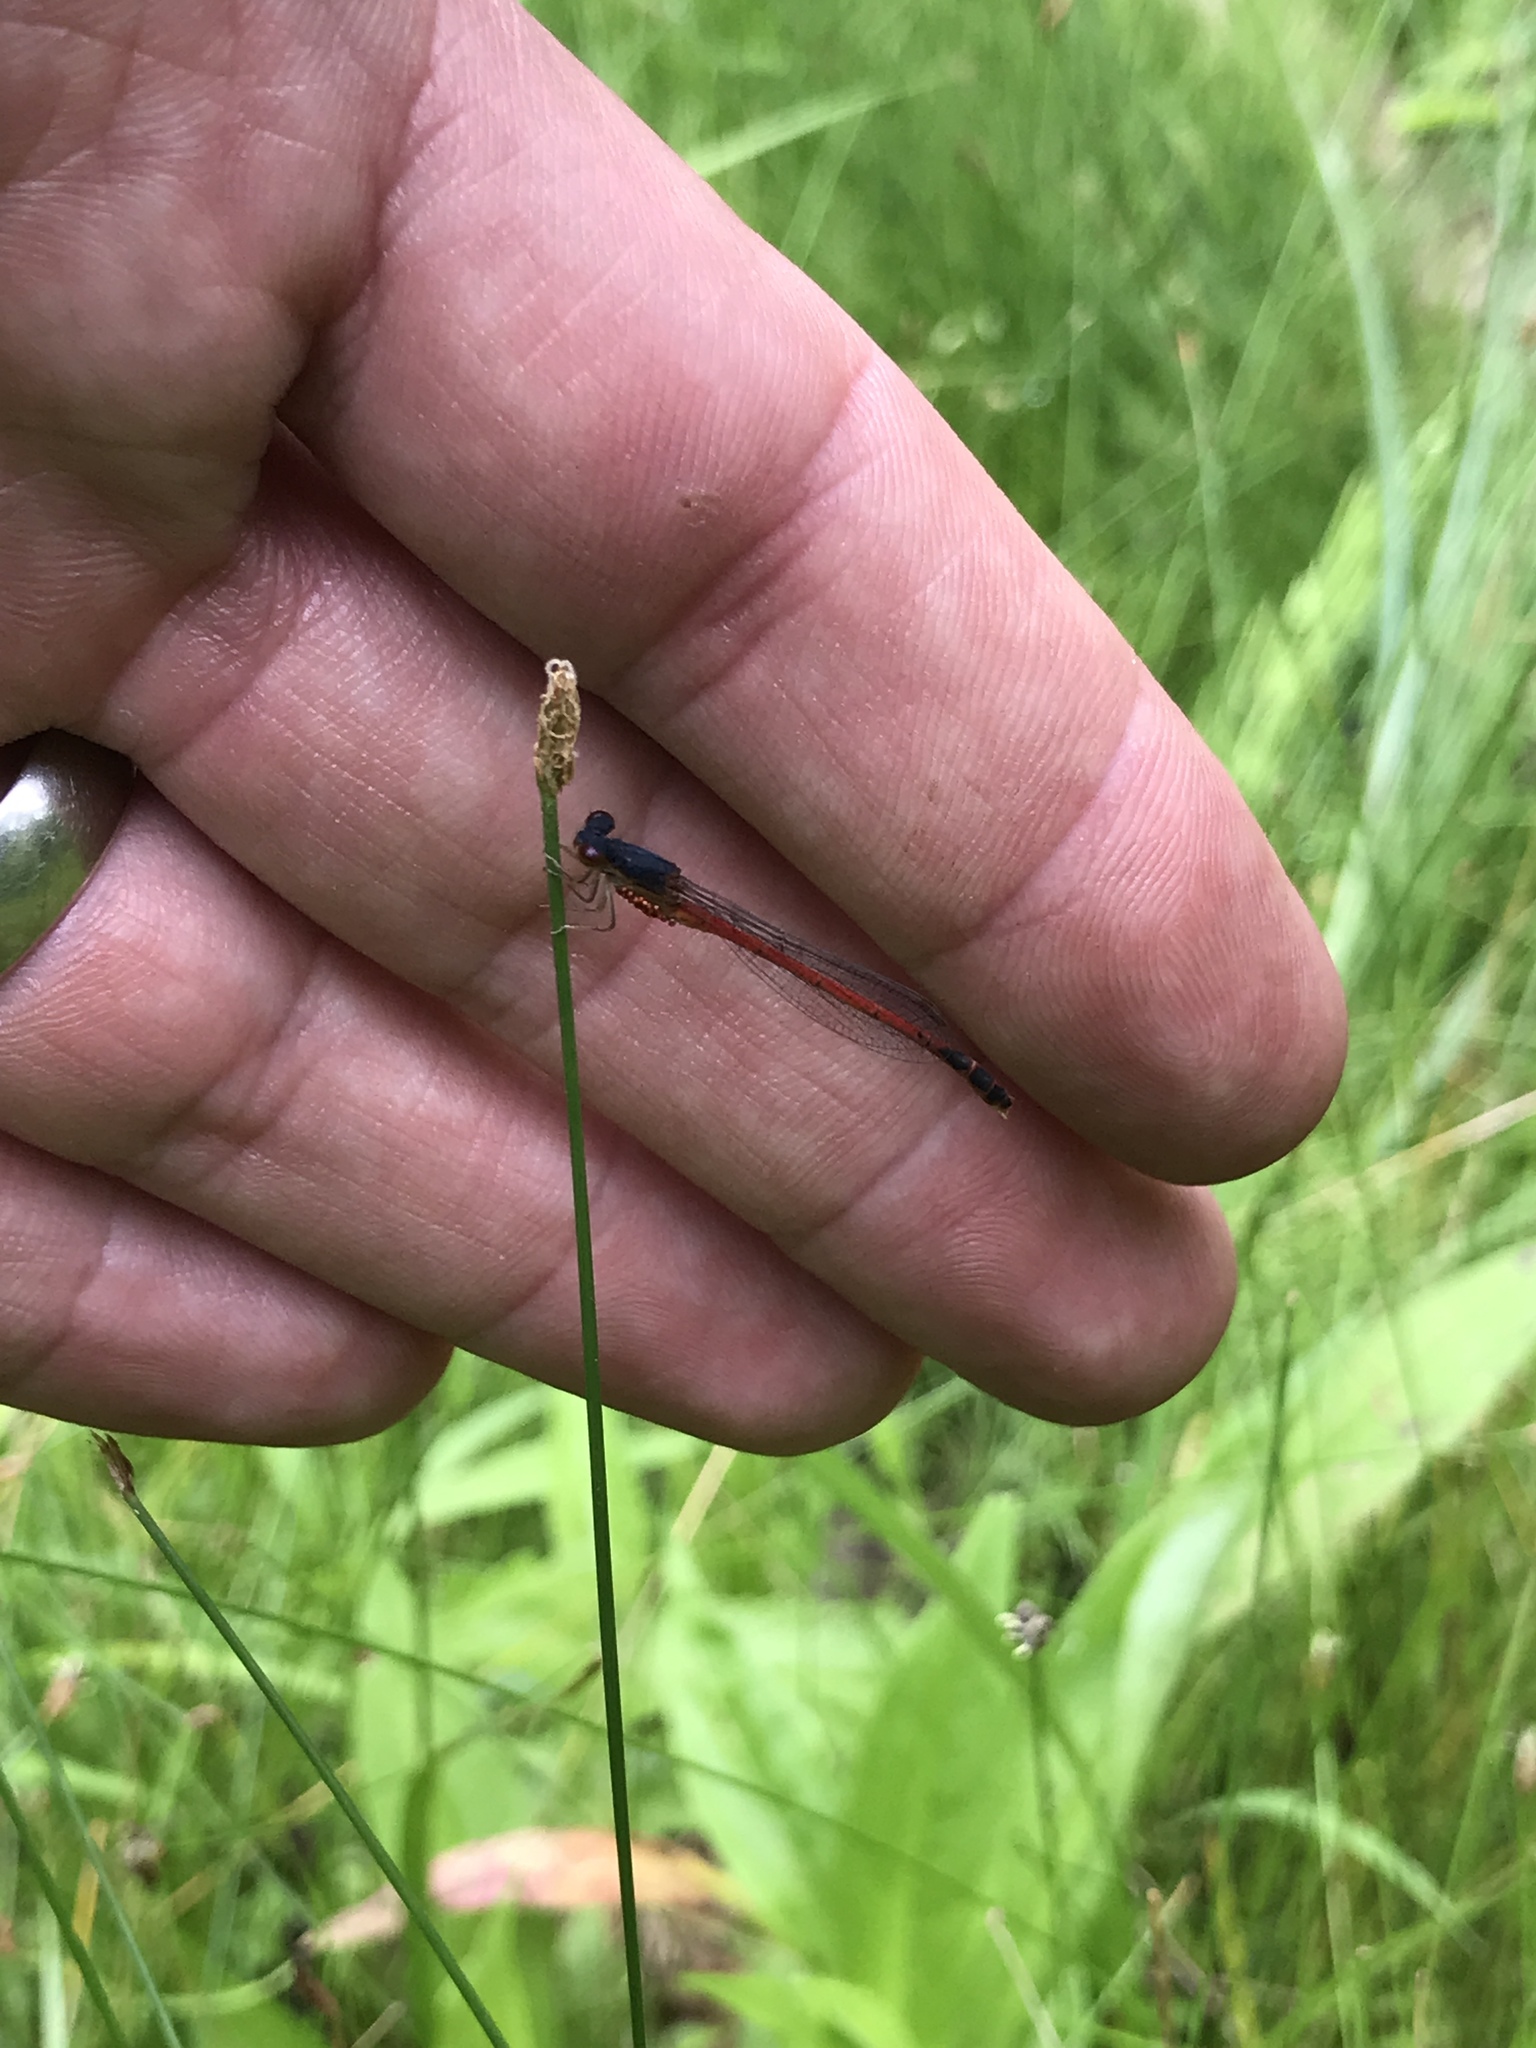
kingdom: Animalia
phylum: Arthropoda
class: Insecta
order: Odonata
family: Coenagrionidae
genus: Amphiagrion
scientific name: Amphiagrion saucium
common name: Eastern red damsel
